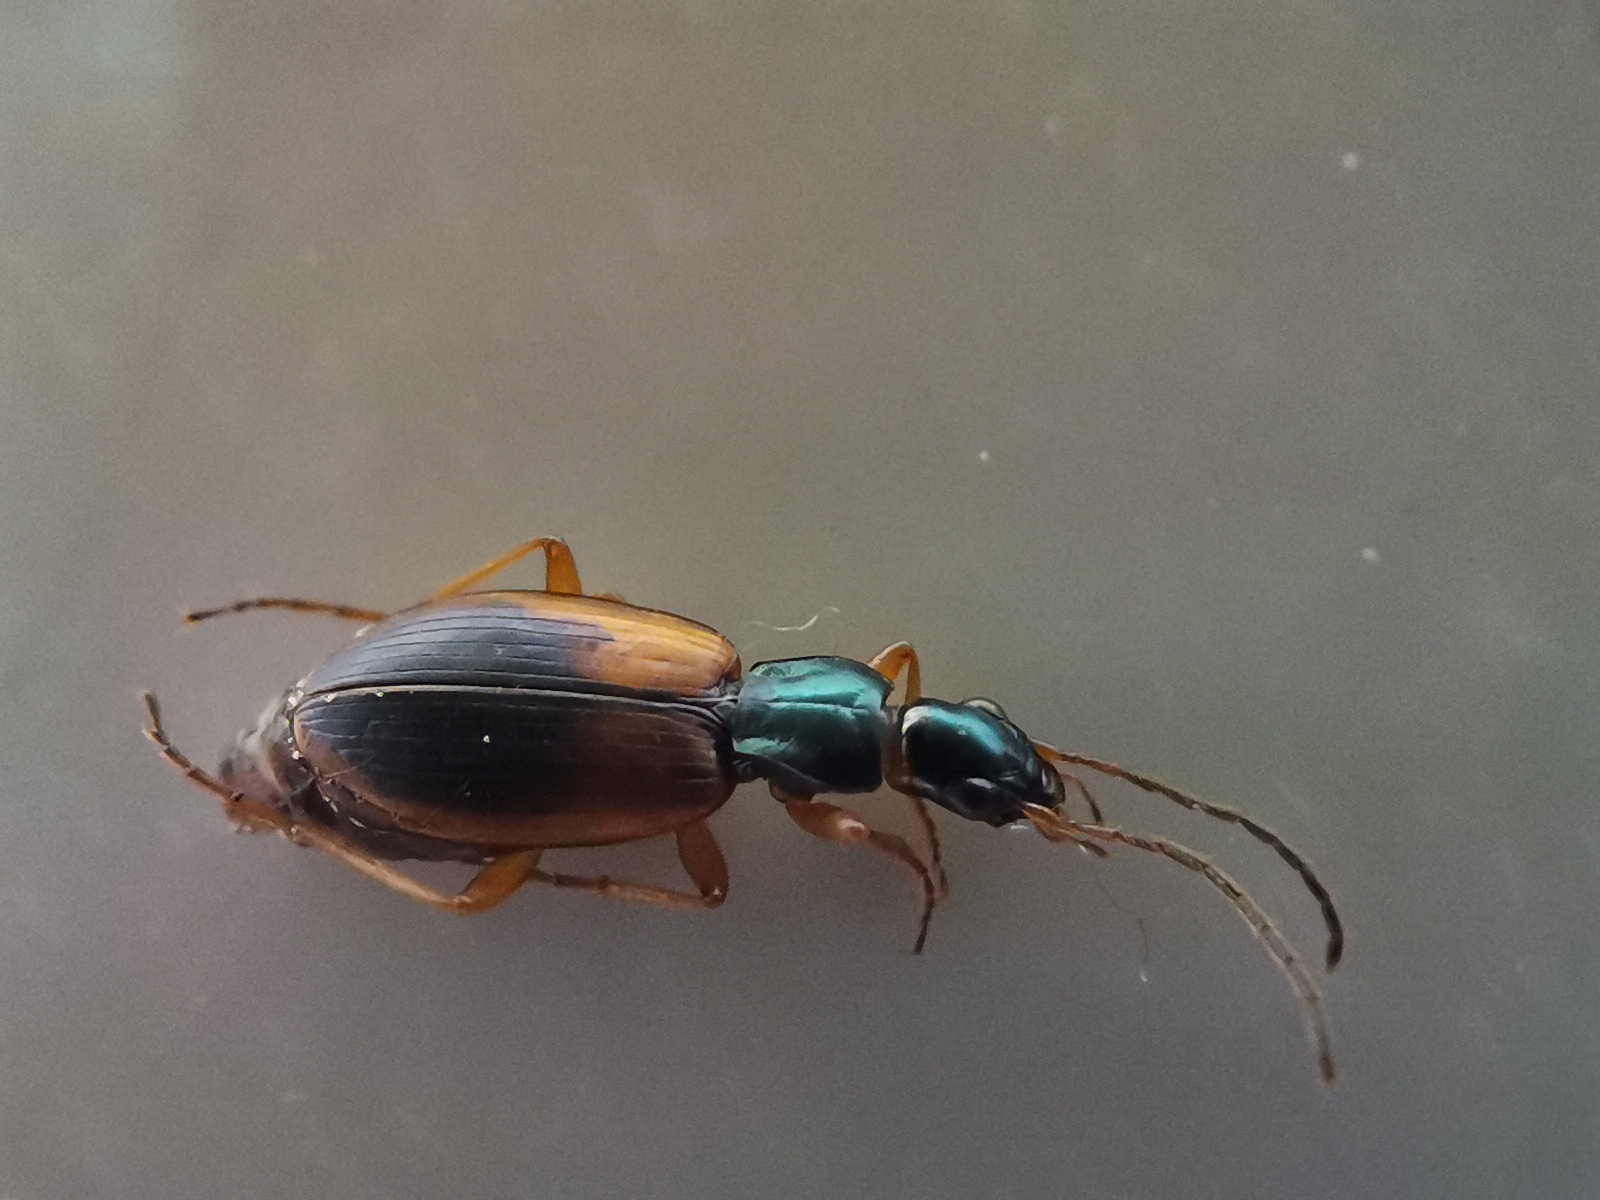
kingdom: Animalia
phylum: Arthropoda
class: Insecta
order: Coleoptera
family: Carabidae
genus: Anchomenus
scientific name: Anchomenus dorsalis
